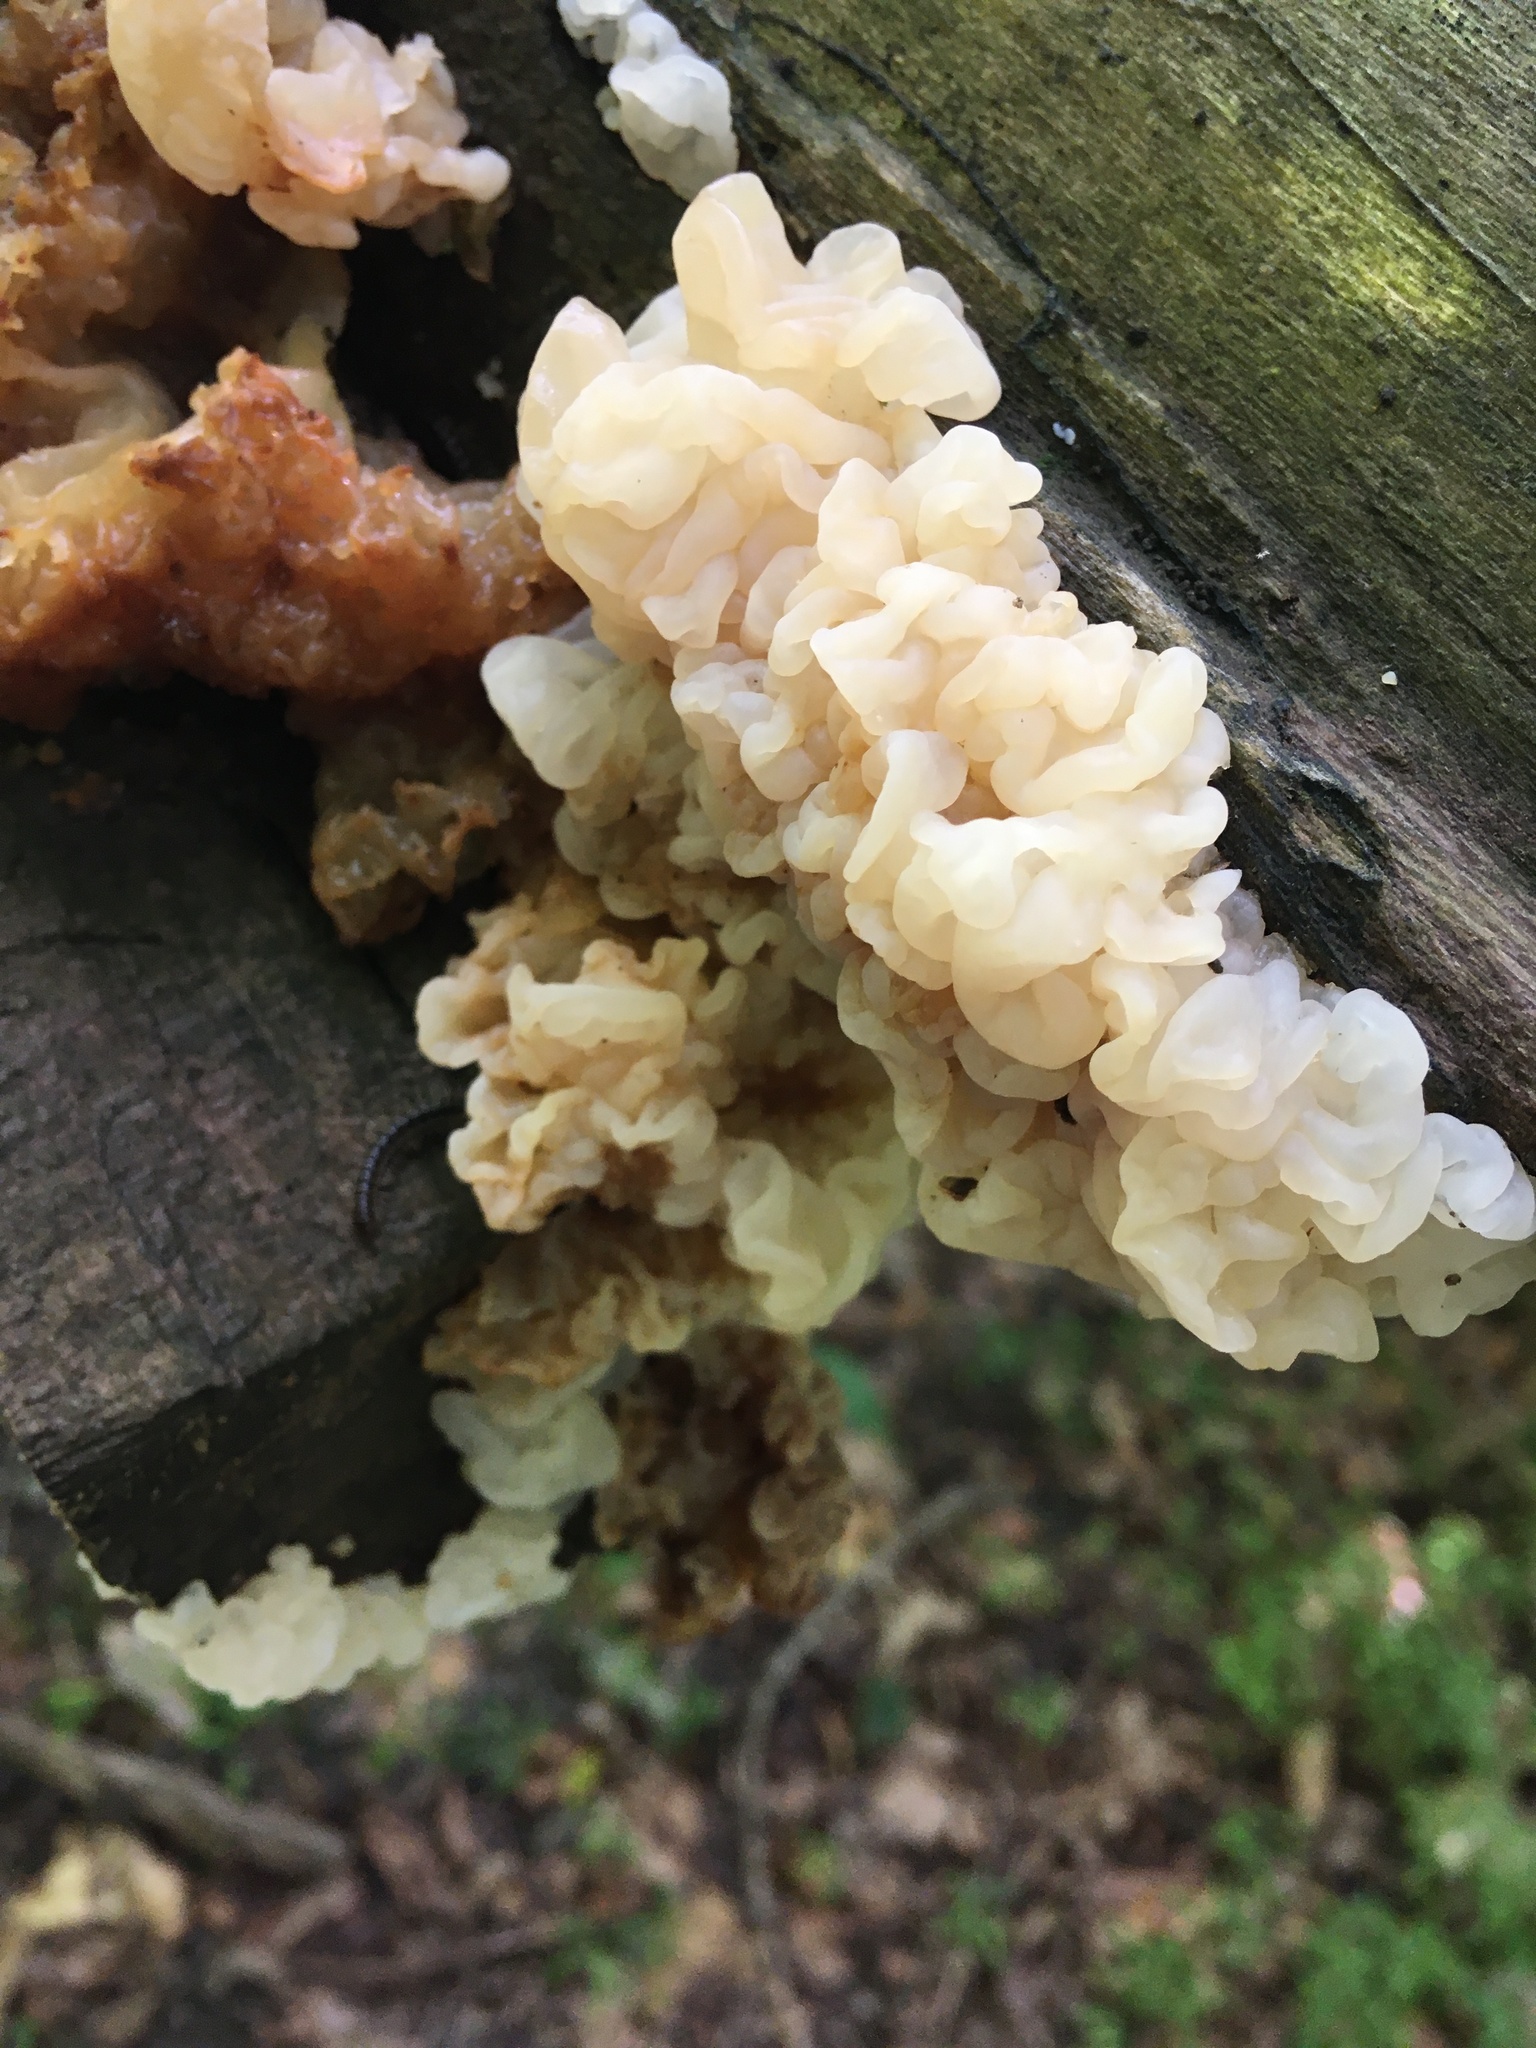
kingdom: Fungi
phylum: Basidiomycota
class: Agaricomycetes
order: Auriculariales
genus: Ductifera
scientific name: Ductifera pululahuana
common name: White jelly fungus
